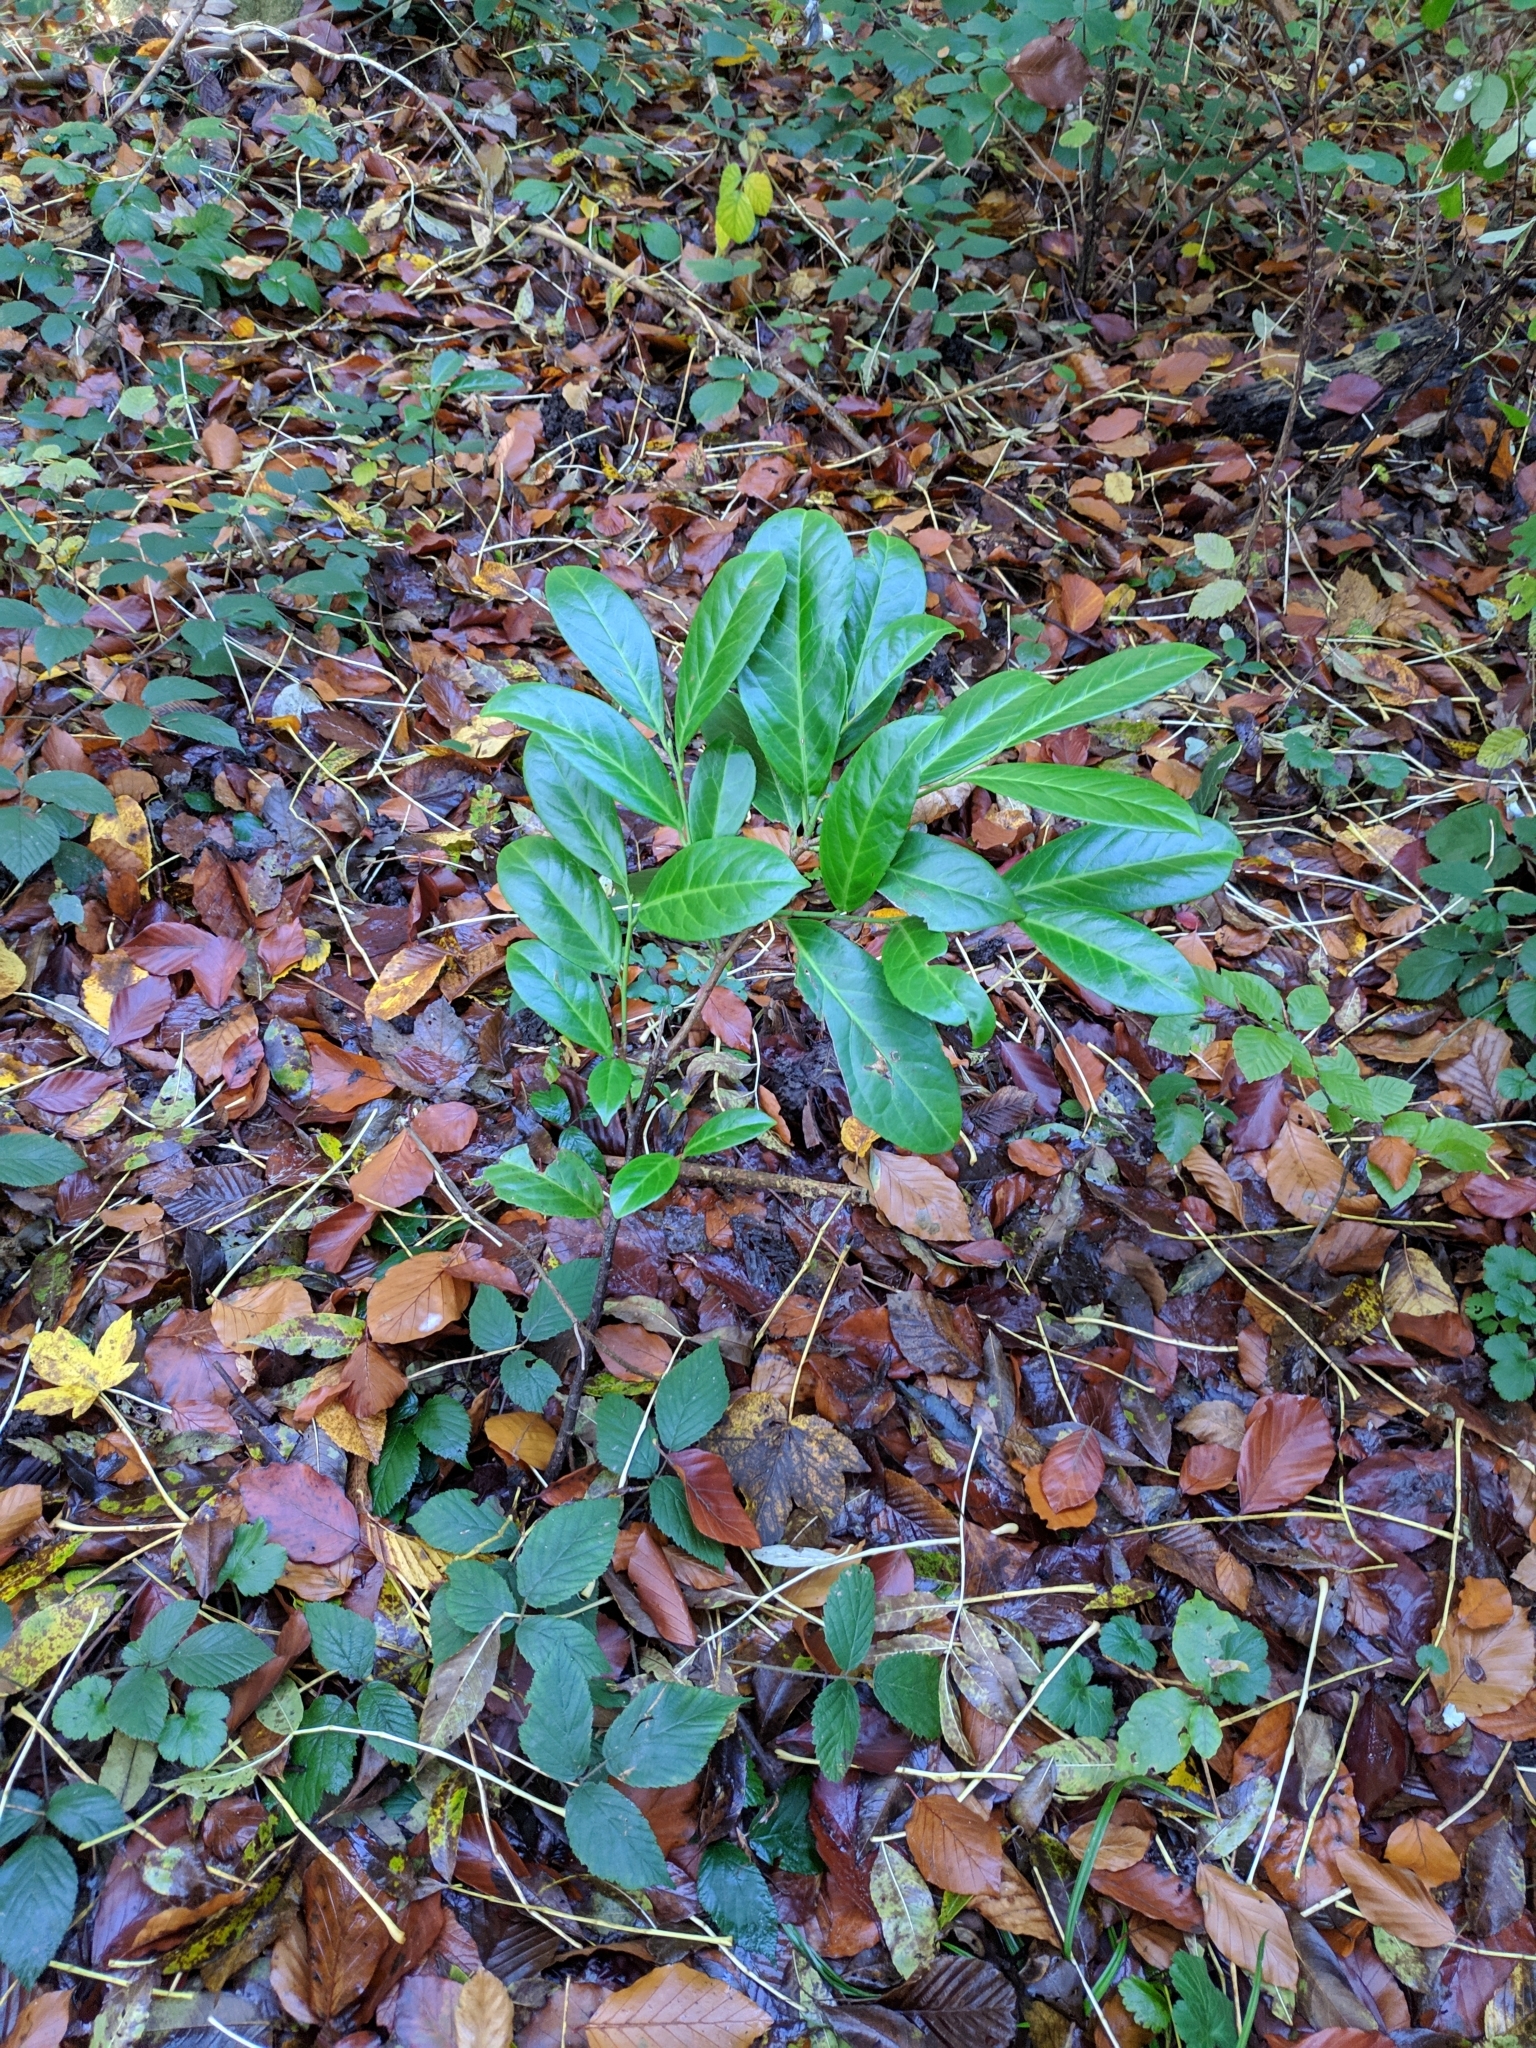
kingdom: Plantae
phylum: Tracheophyta
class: Magnoliopsida
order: Rosales
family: Rosaceae
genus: Prunus
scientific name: Prunus laurocerasus
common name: Cherry laurel
